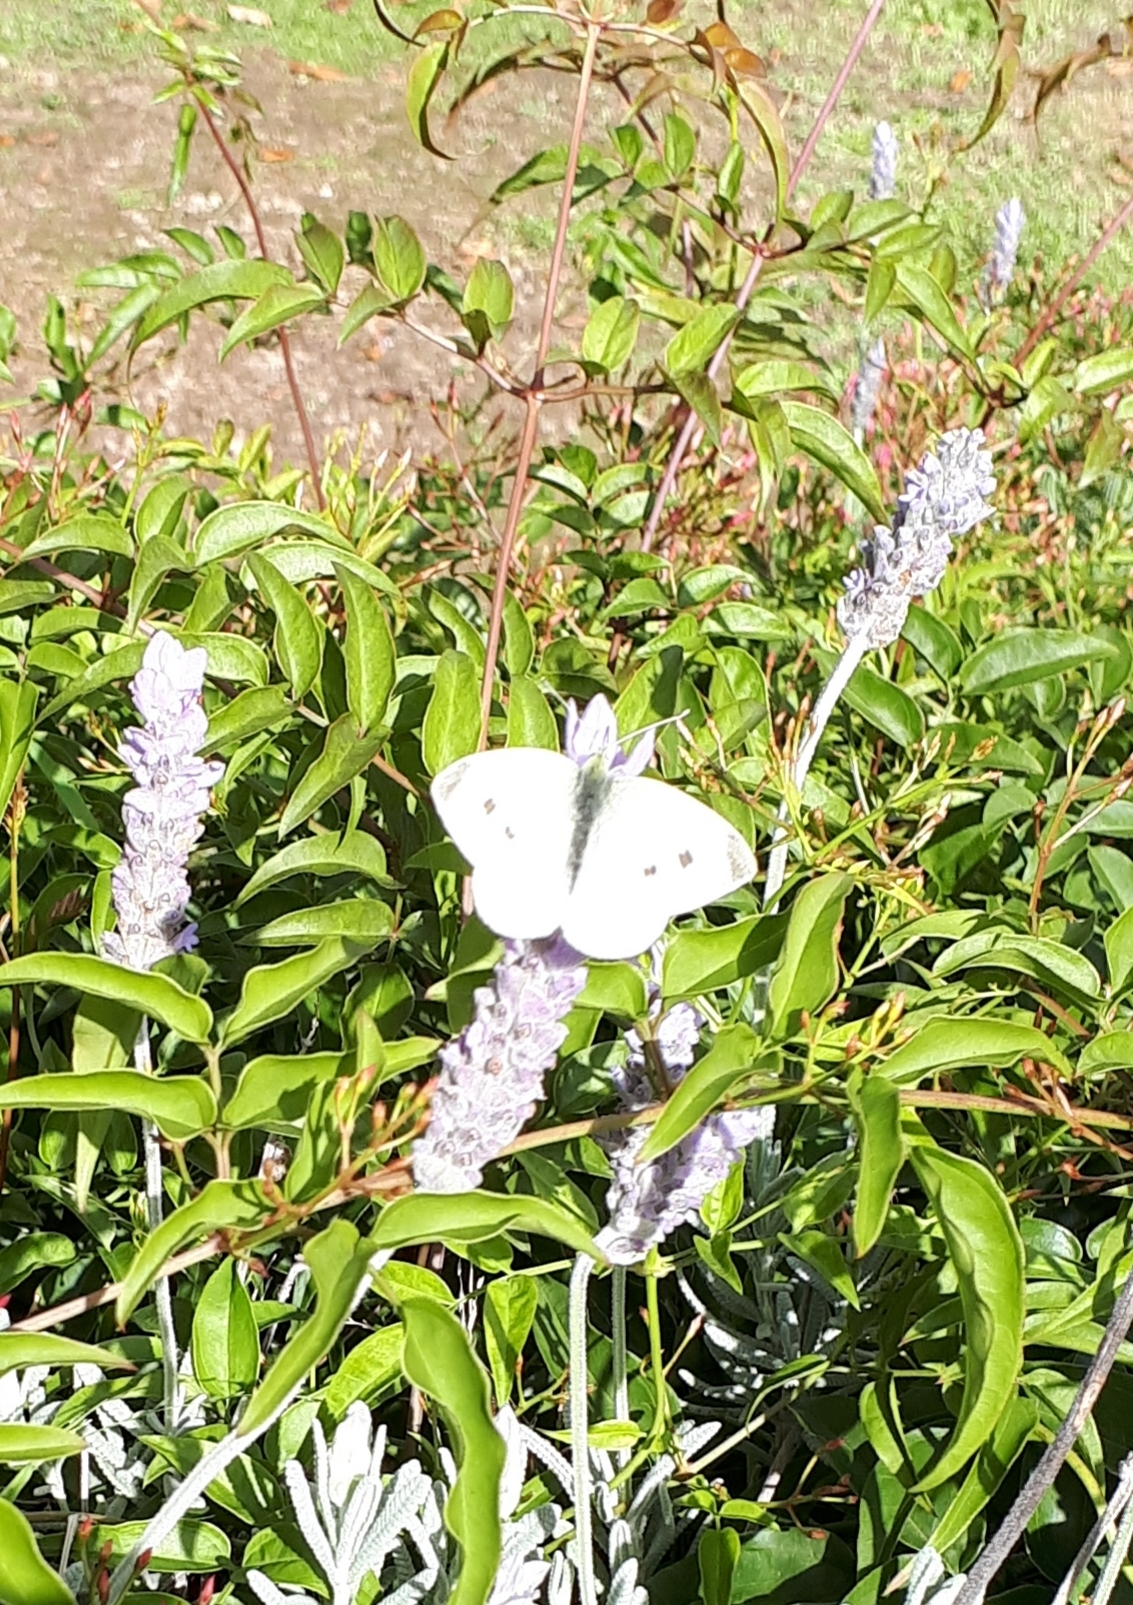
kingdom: Animalia
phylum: Arthropoda
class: Insecta
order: Lepidoptera
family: Pieridae
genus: Pieris
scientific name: Pieris rapae
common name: Small white
